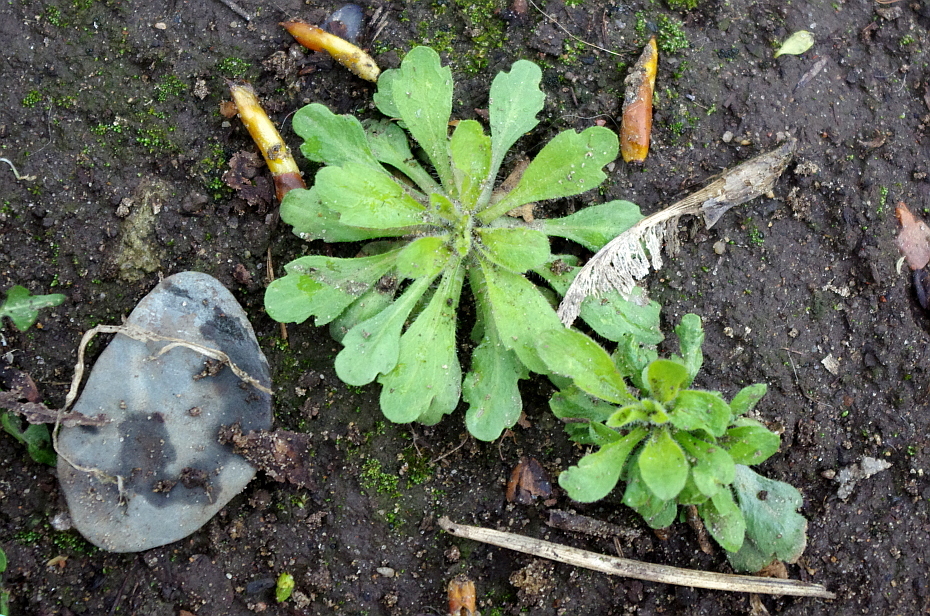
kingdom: Plantae
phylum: Tracheophyta
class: Magnoliopsida
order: Asterales
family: Asteraceae
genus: Erigeron
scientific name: Erigeron canadensis
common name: Canadian fleabane
